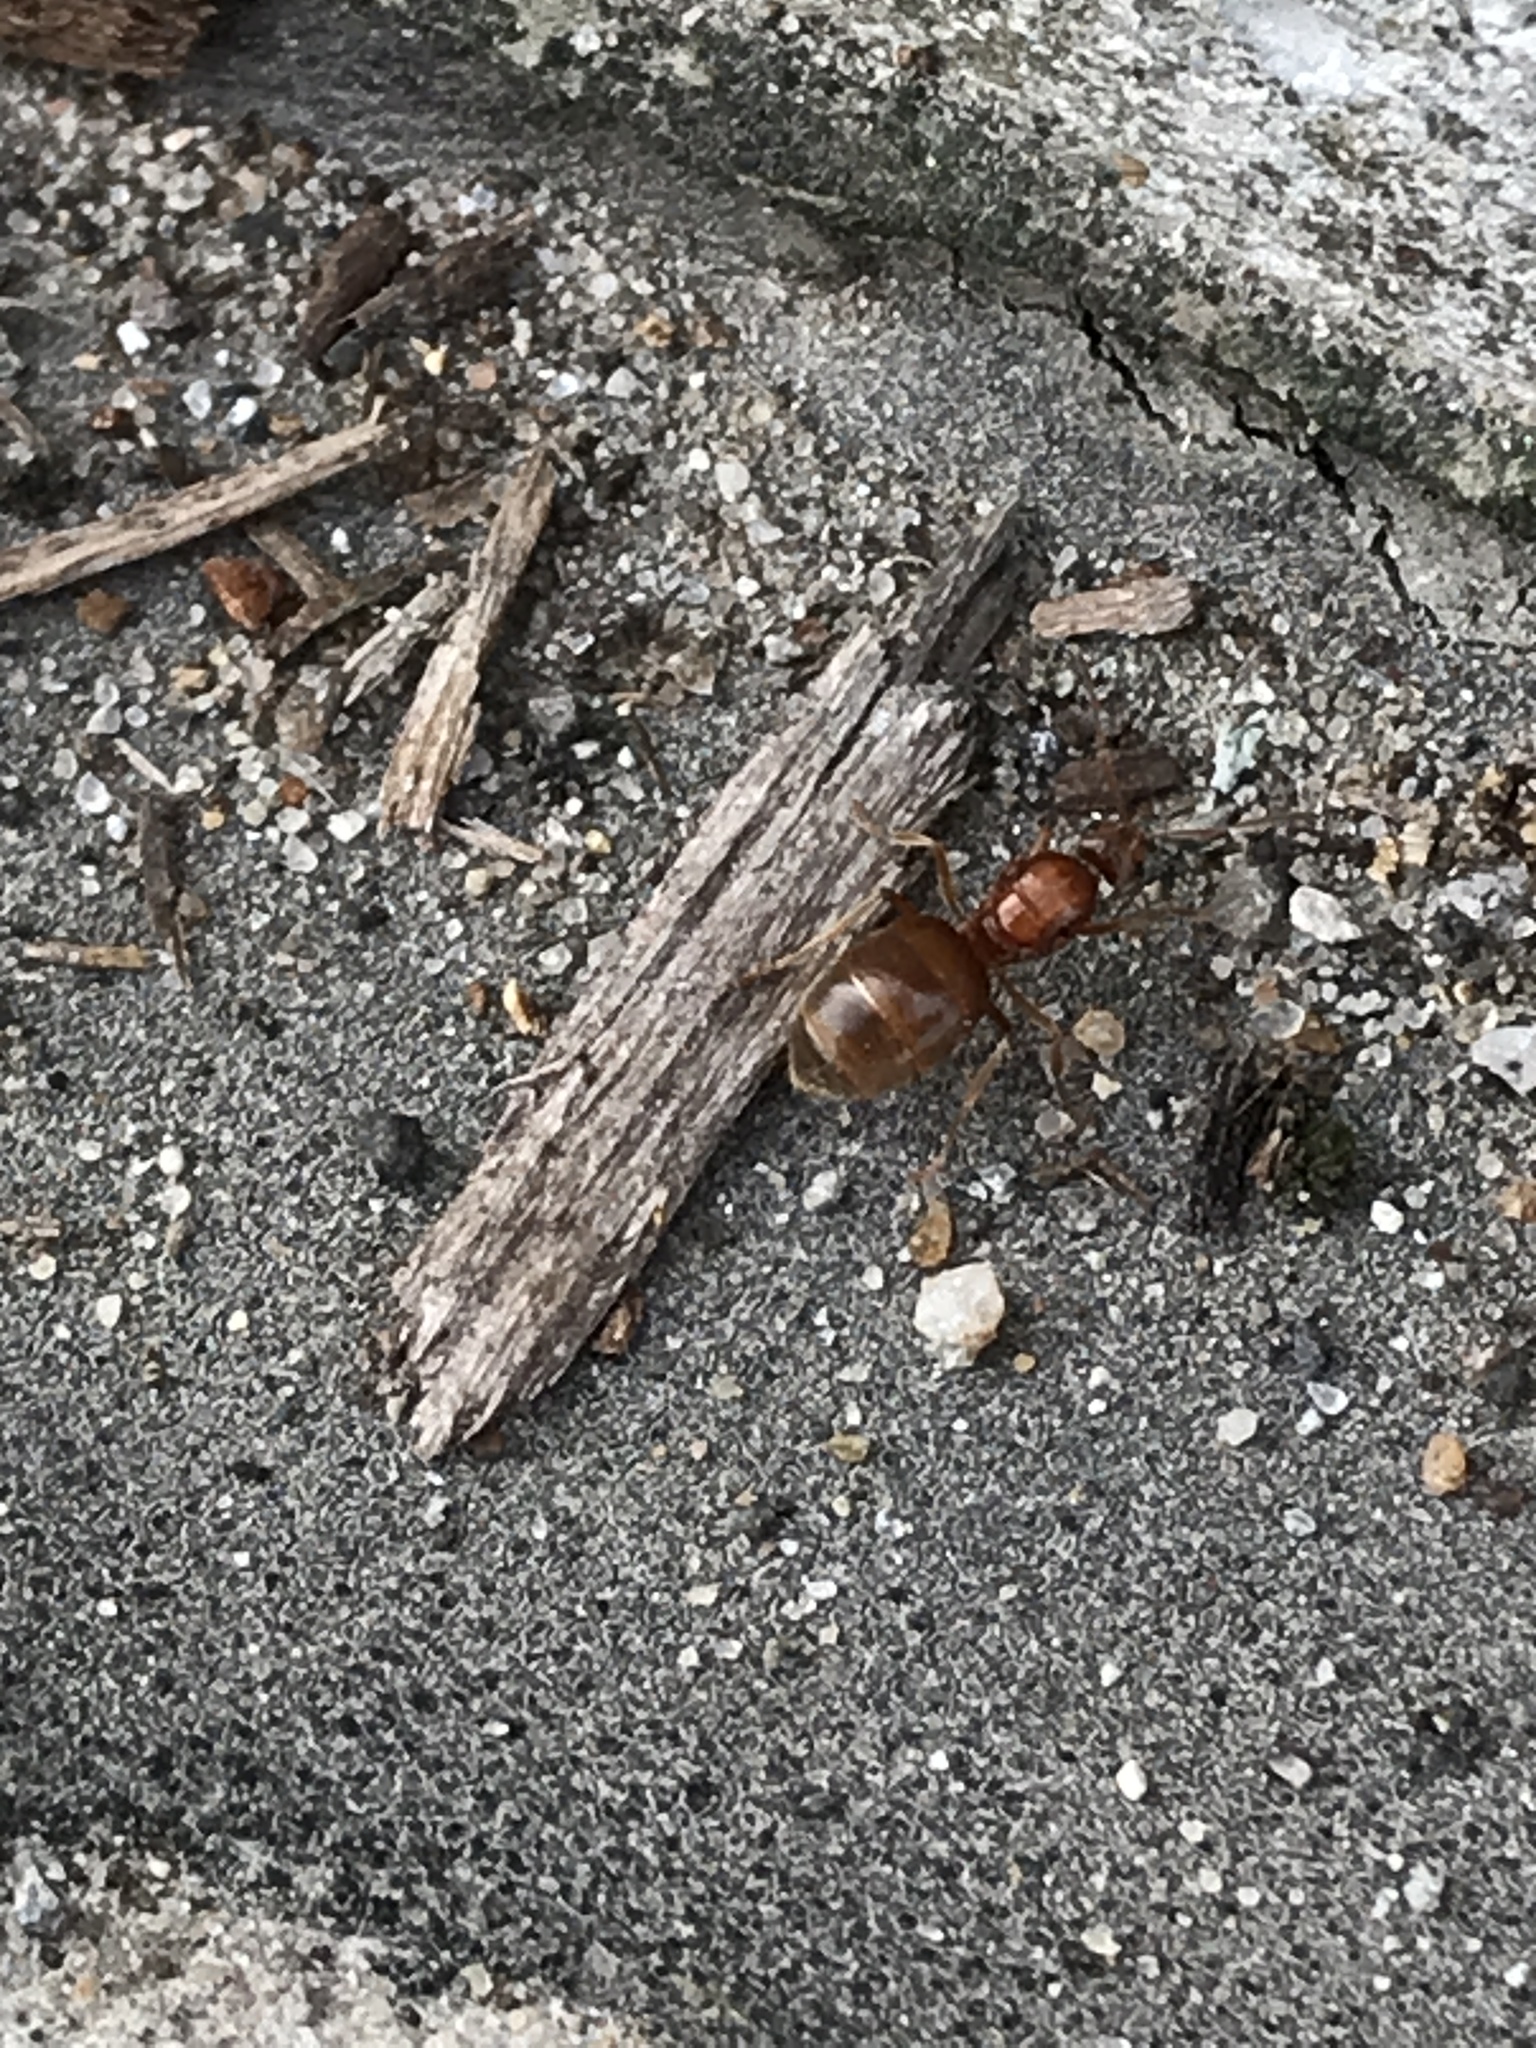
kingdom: Animalia
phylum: Arthropoda
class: Insecta
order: Hymenoptera
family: Formicidae
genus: Prenolepis
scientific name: Prenolepis imparis
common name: Small honey ant
